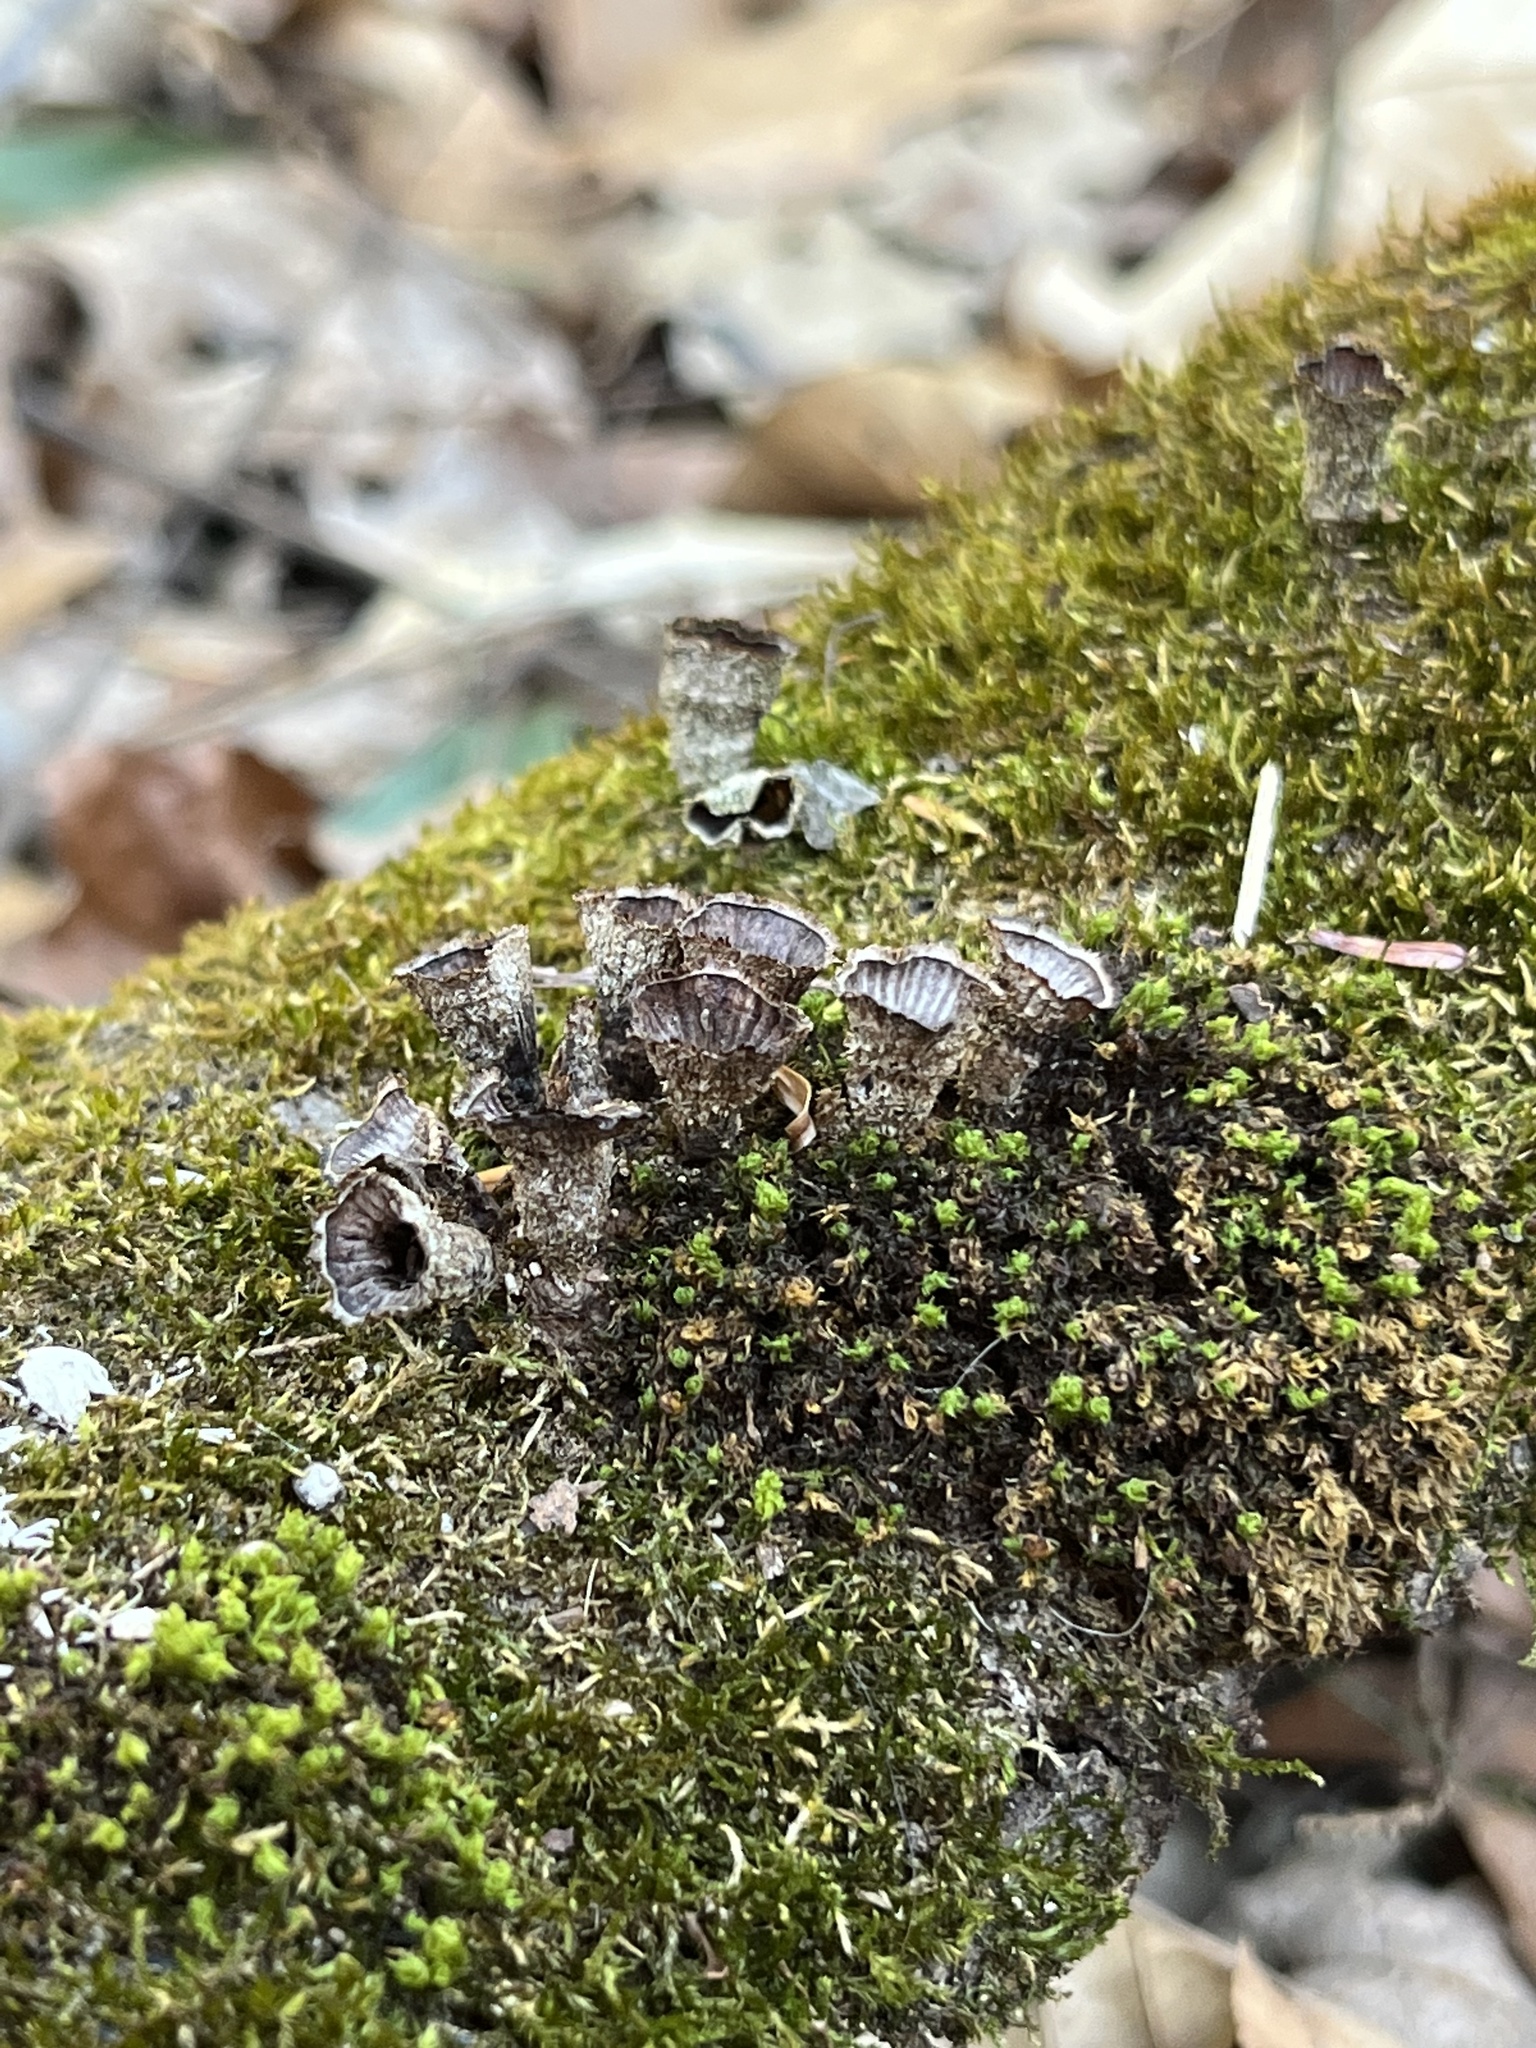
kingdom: Fungi
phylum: Basidiomycota
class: Agaricomycetes
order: Agaricales
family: Agaricaceae
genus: Cyathus
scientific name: Cyathus striatus
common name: Fluted bird's nest
